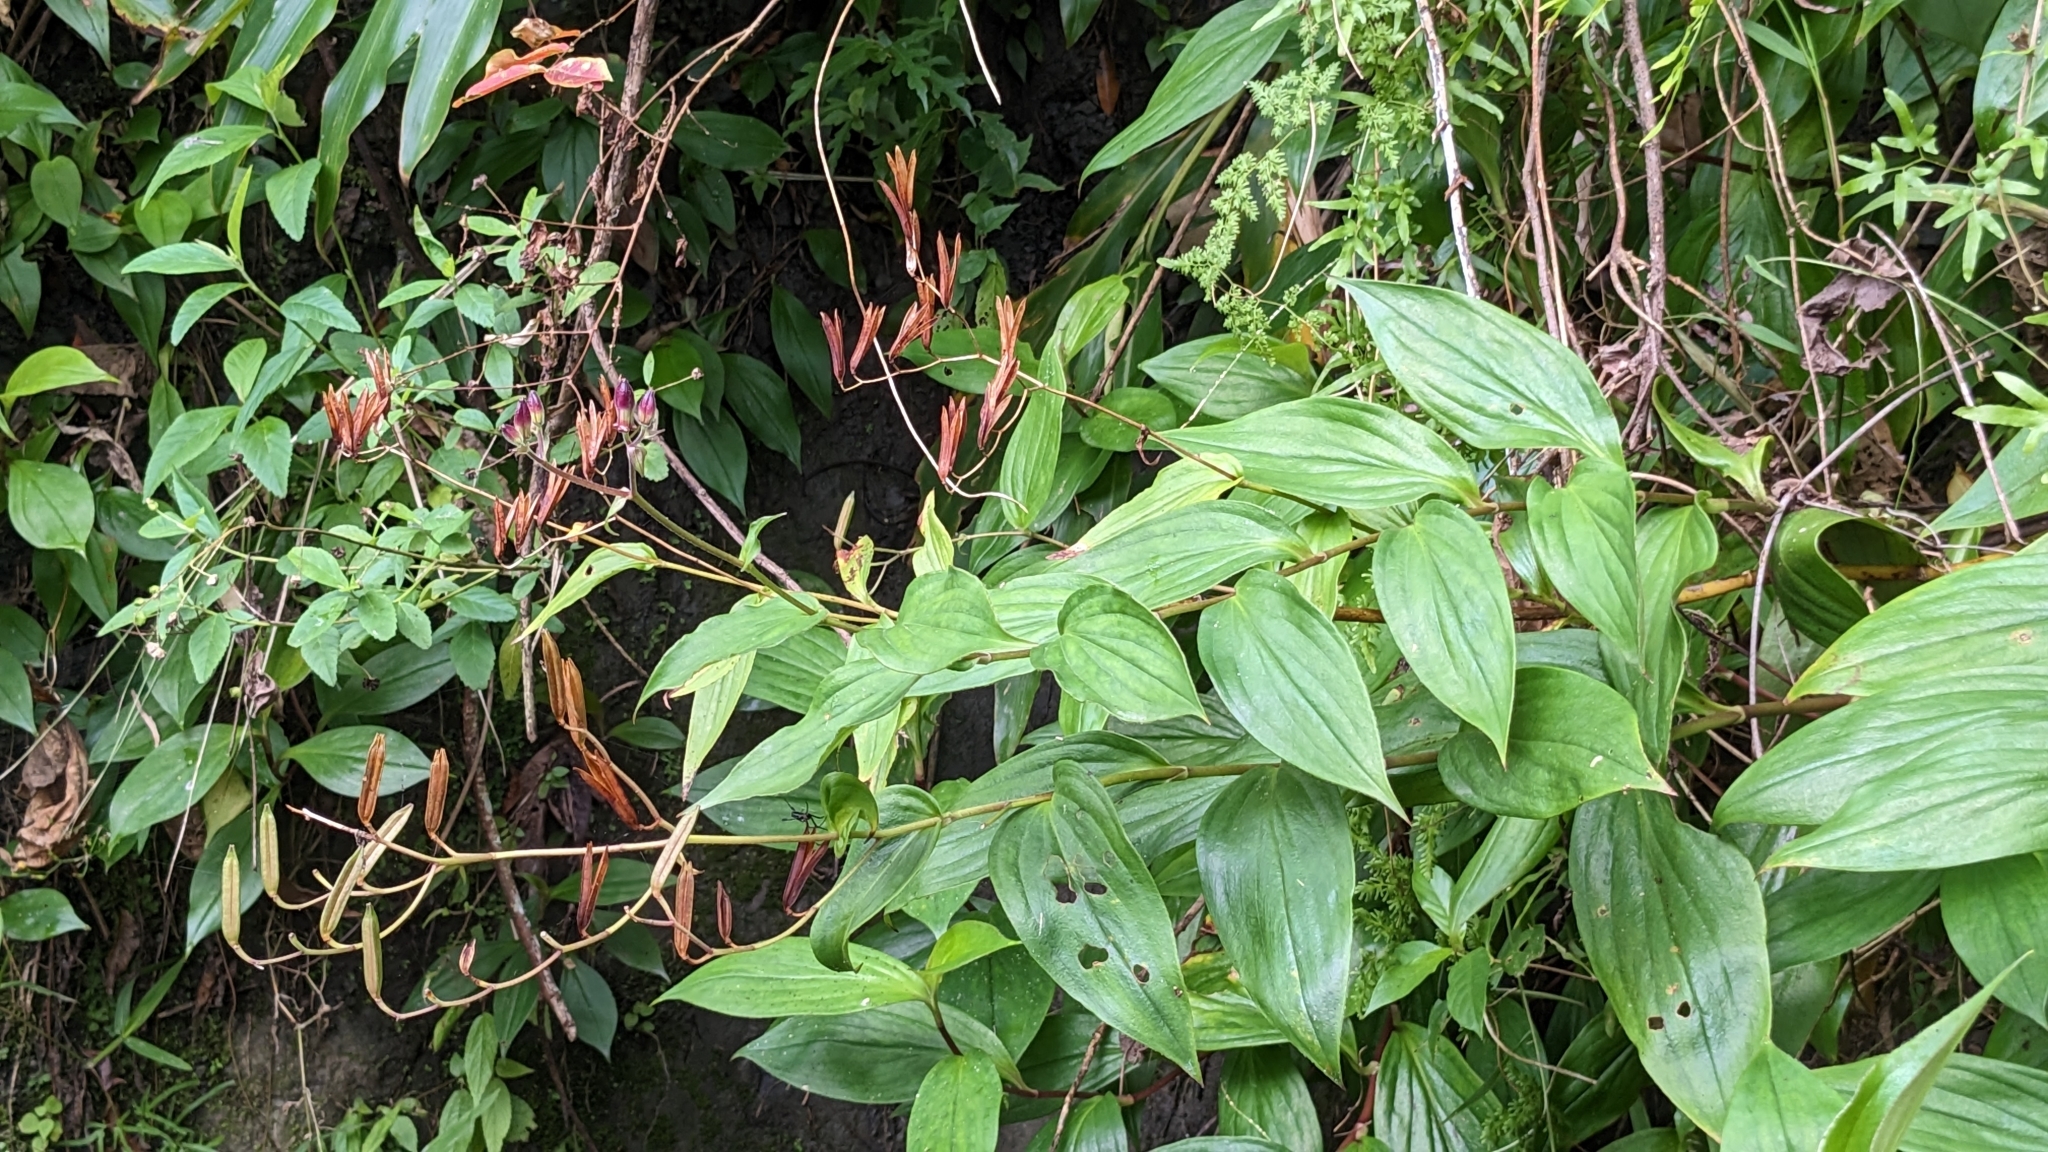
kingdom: Plantae
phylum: Tracheophyta
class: Liliopsida
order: Liliales
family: Liliaceae
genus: Tricyrtis
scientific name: Tricyrtis formosana
